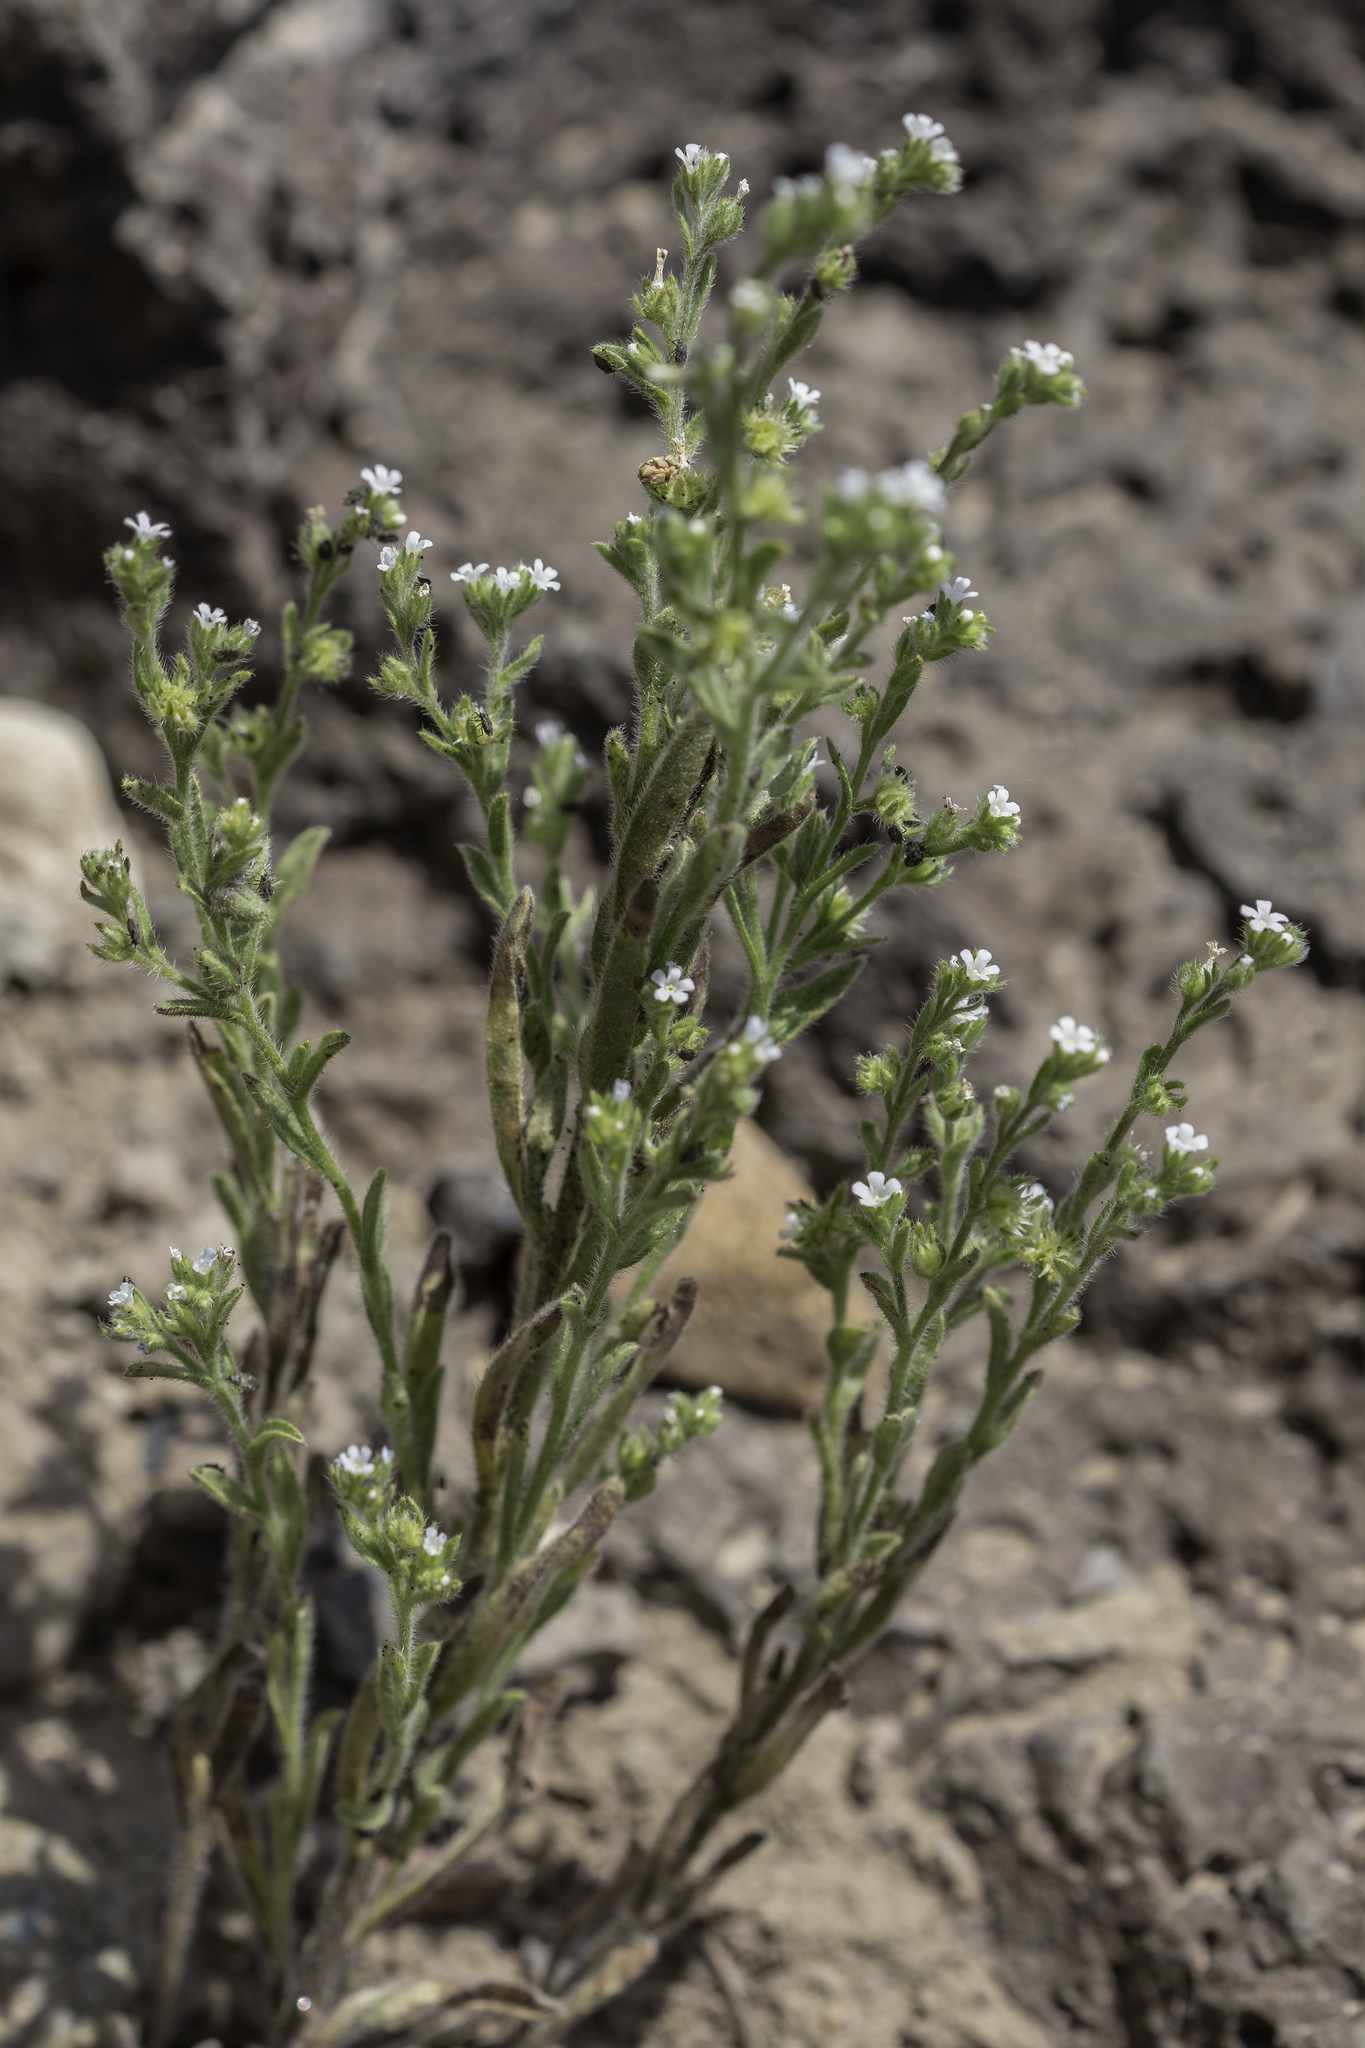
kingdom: Plantae
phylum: Tracheophyta
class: Magnoliopsida
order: Boraginales
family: Boraginaceae
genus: Lappula
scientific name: Lappula occidentalis
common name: Western stickseed
